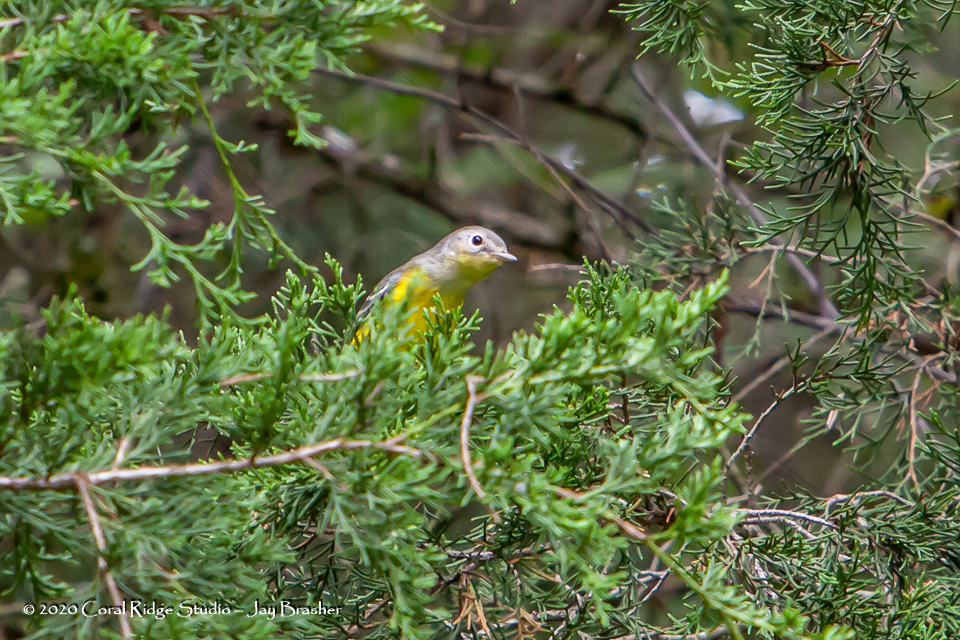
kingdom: Animalia
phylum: Chordata
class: Aves
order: Passeriformes
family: Parulidae
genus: Setophaga
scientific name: Setophaga magnolia
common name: Magnolia warbler
